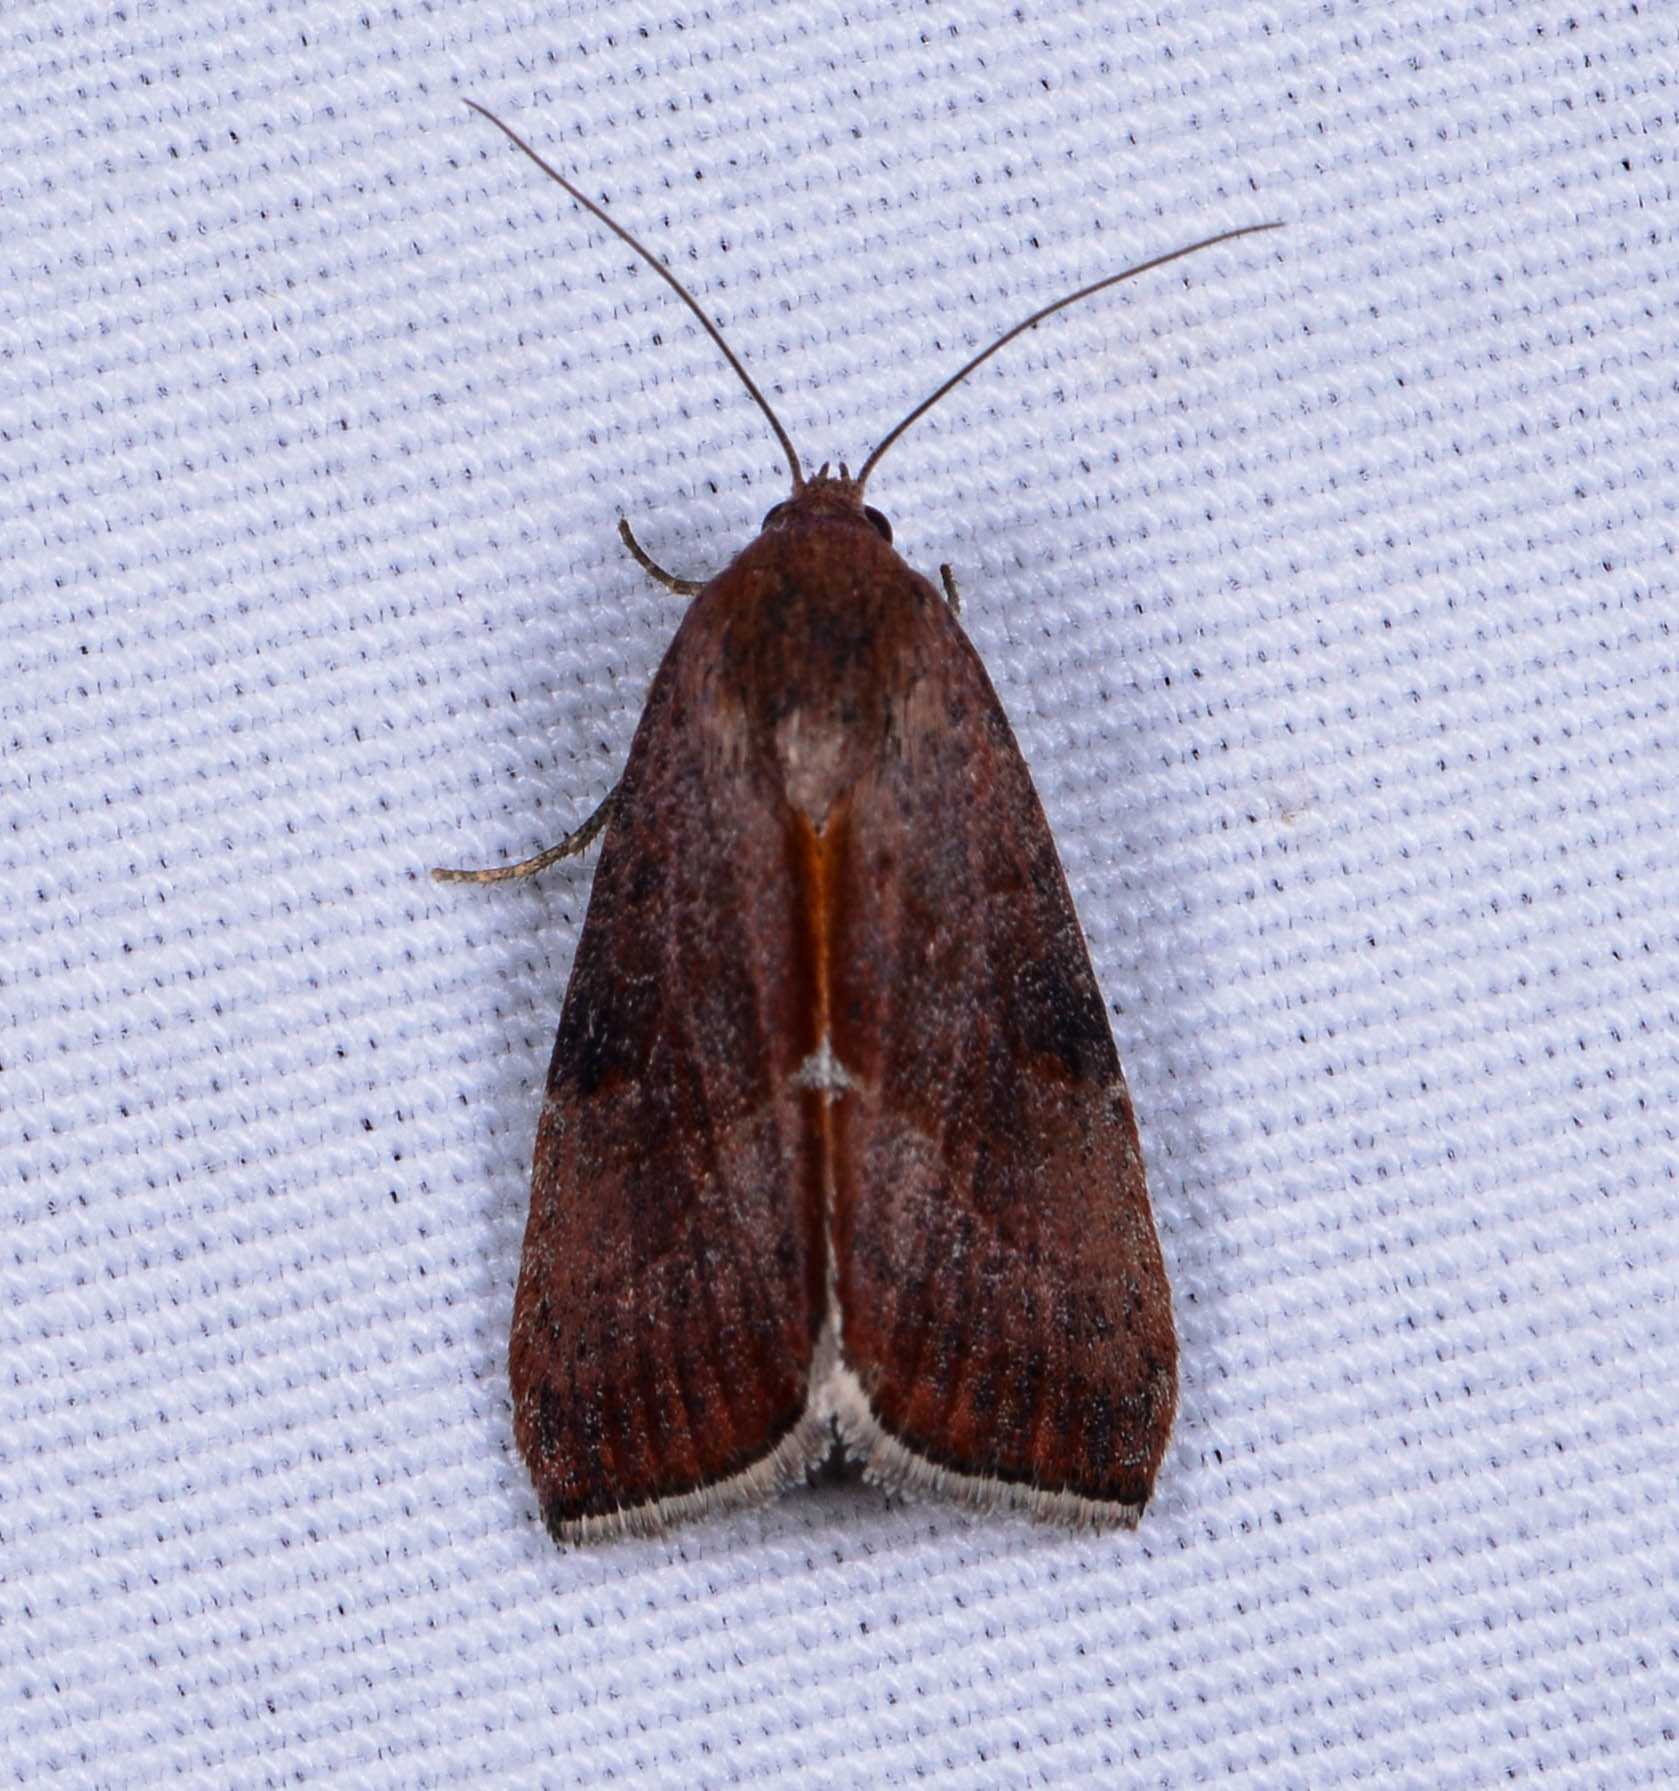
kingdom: Animalia
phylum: Arthropoda
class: Insecta
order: Lepidoptera
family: Noctuidae
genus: Galgula
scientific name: Galgula partita
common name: Wedgeling
